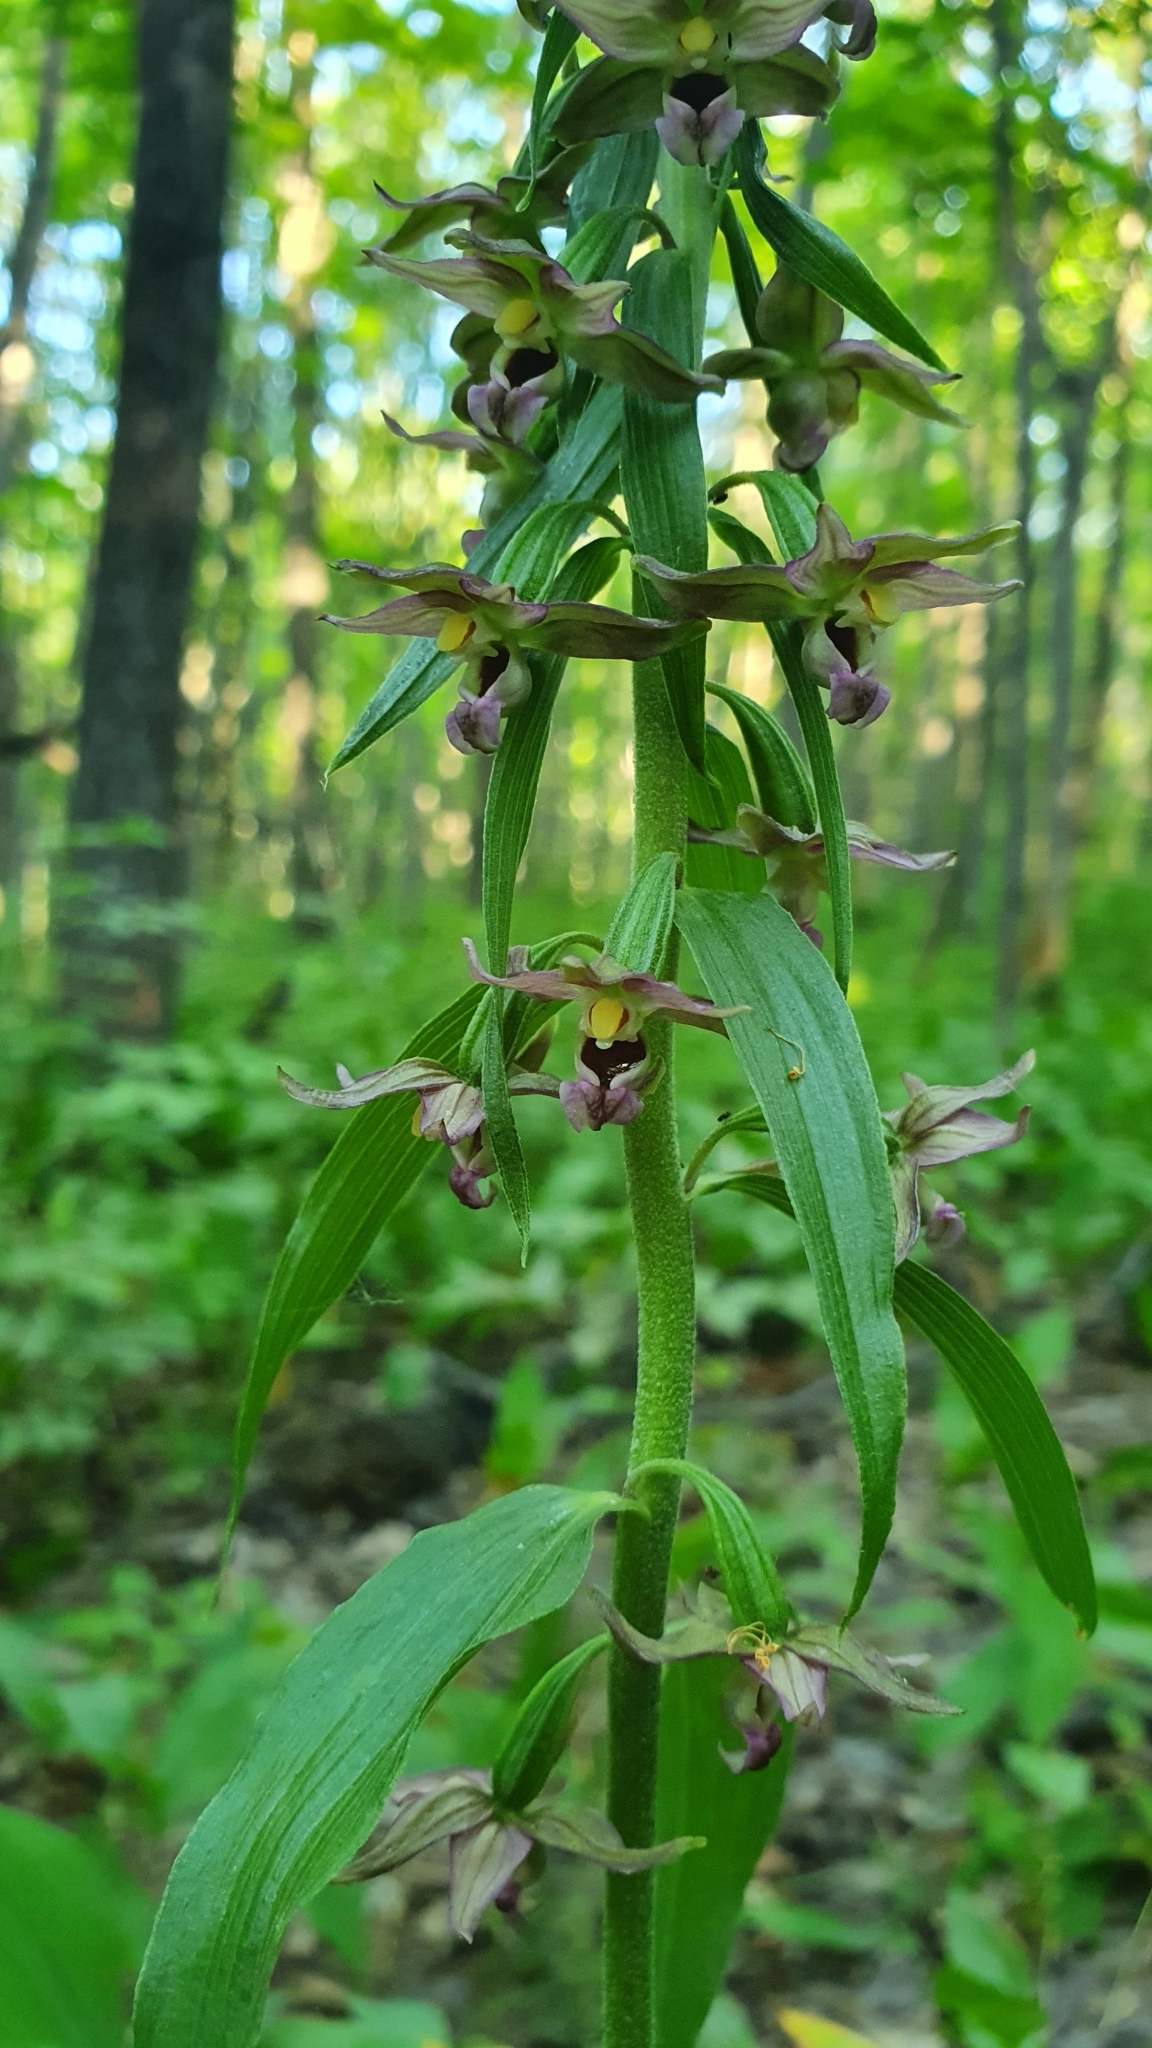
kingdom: Plantae
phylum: Tracheophyta
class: Liliopsida
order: Asparagales
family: Orchidaceae
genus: Epipactis
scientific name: Epipactis helleborine
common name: Broad-leaved helleborine
